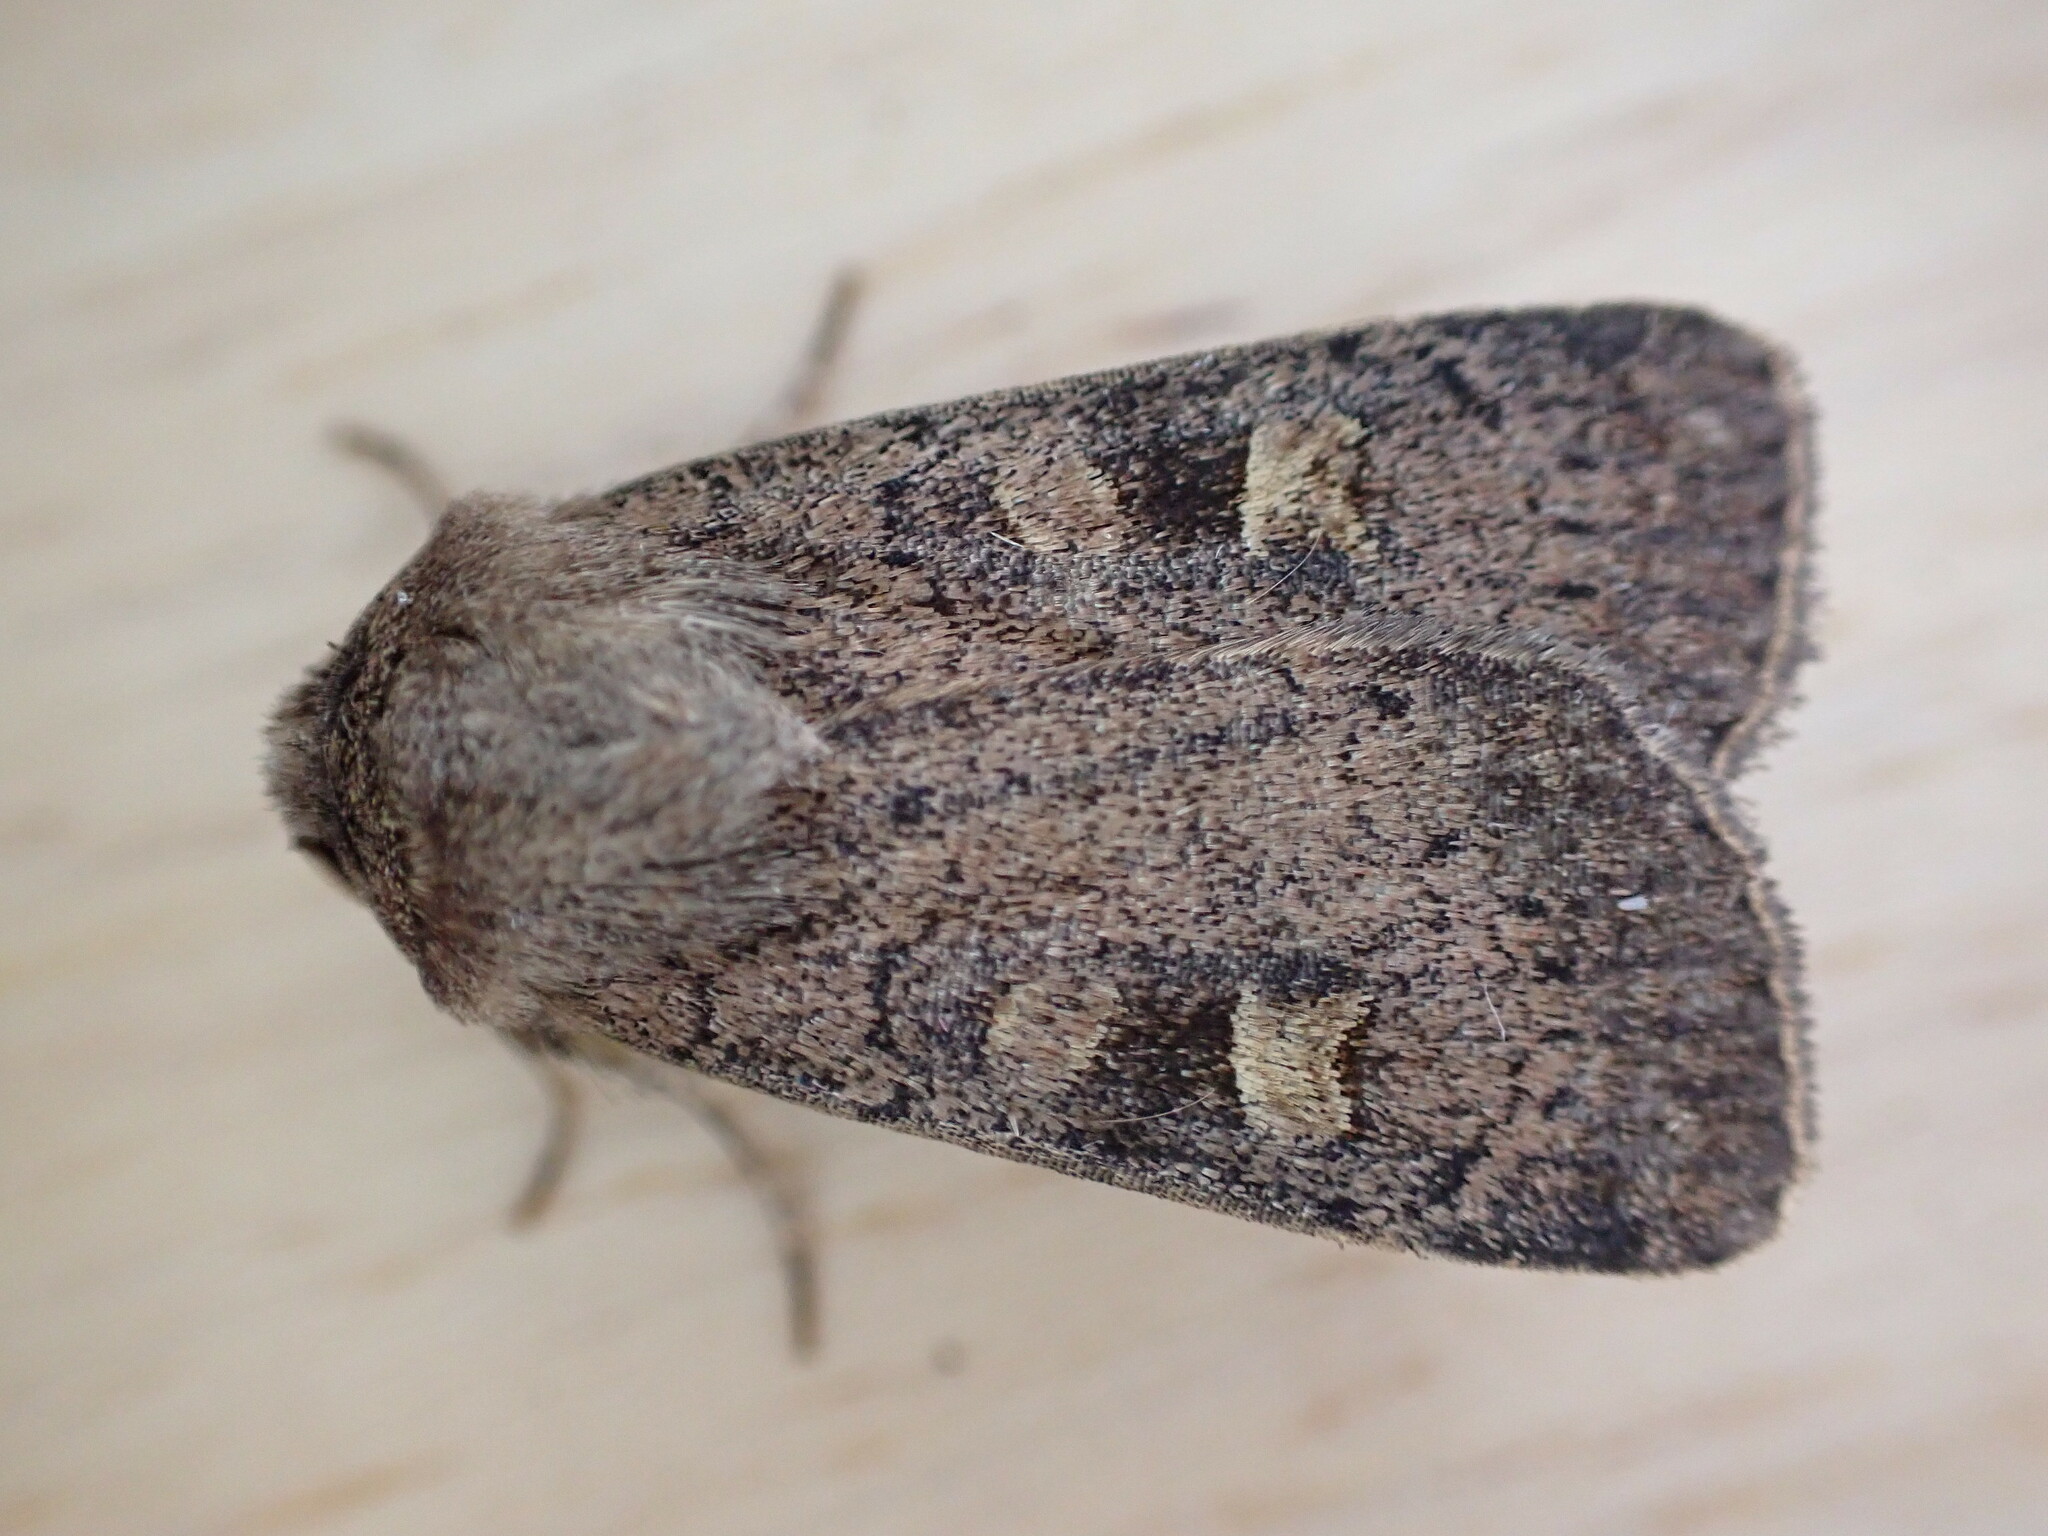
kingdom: Animalia
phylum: Arthropoda
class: Insecta
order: Lepidoptera
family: Noctuidae
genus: Xestia
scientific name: Xestia xanthographa
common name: Square-spot rustic
